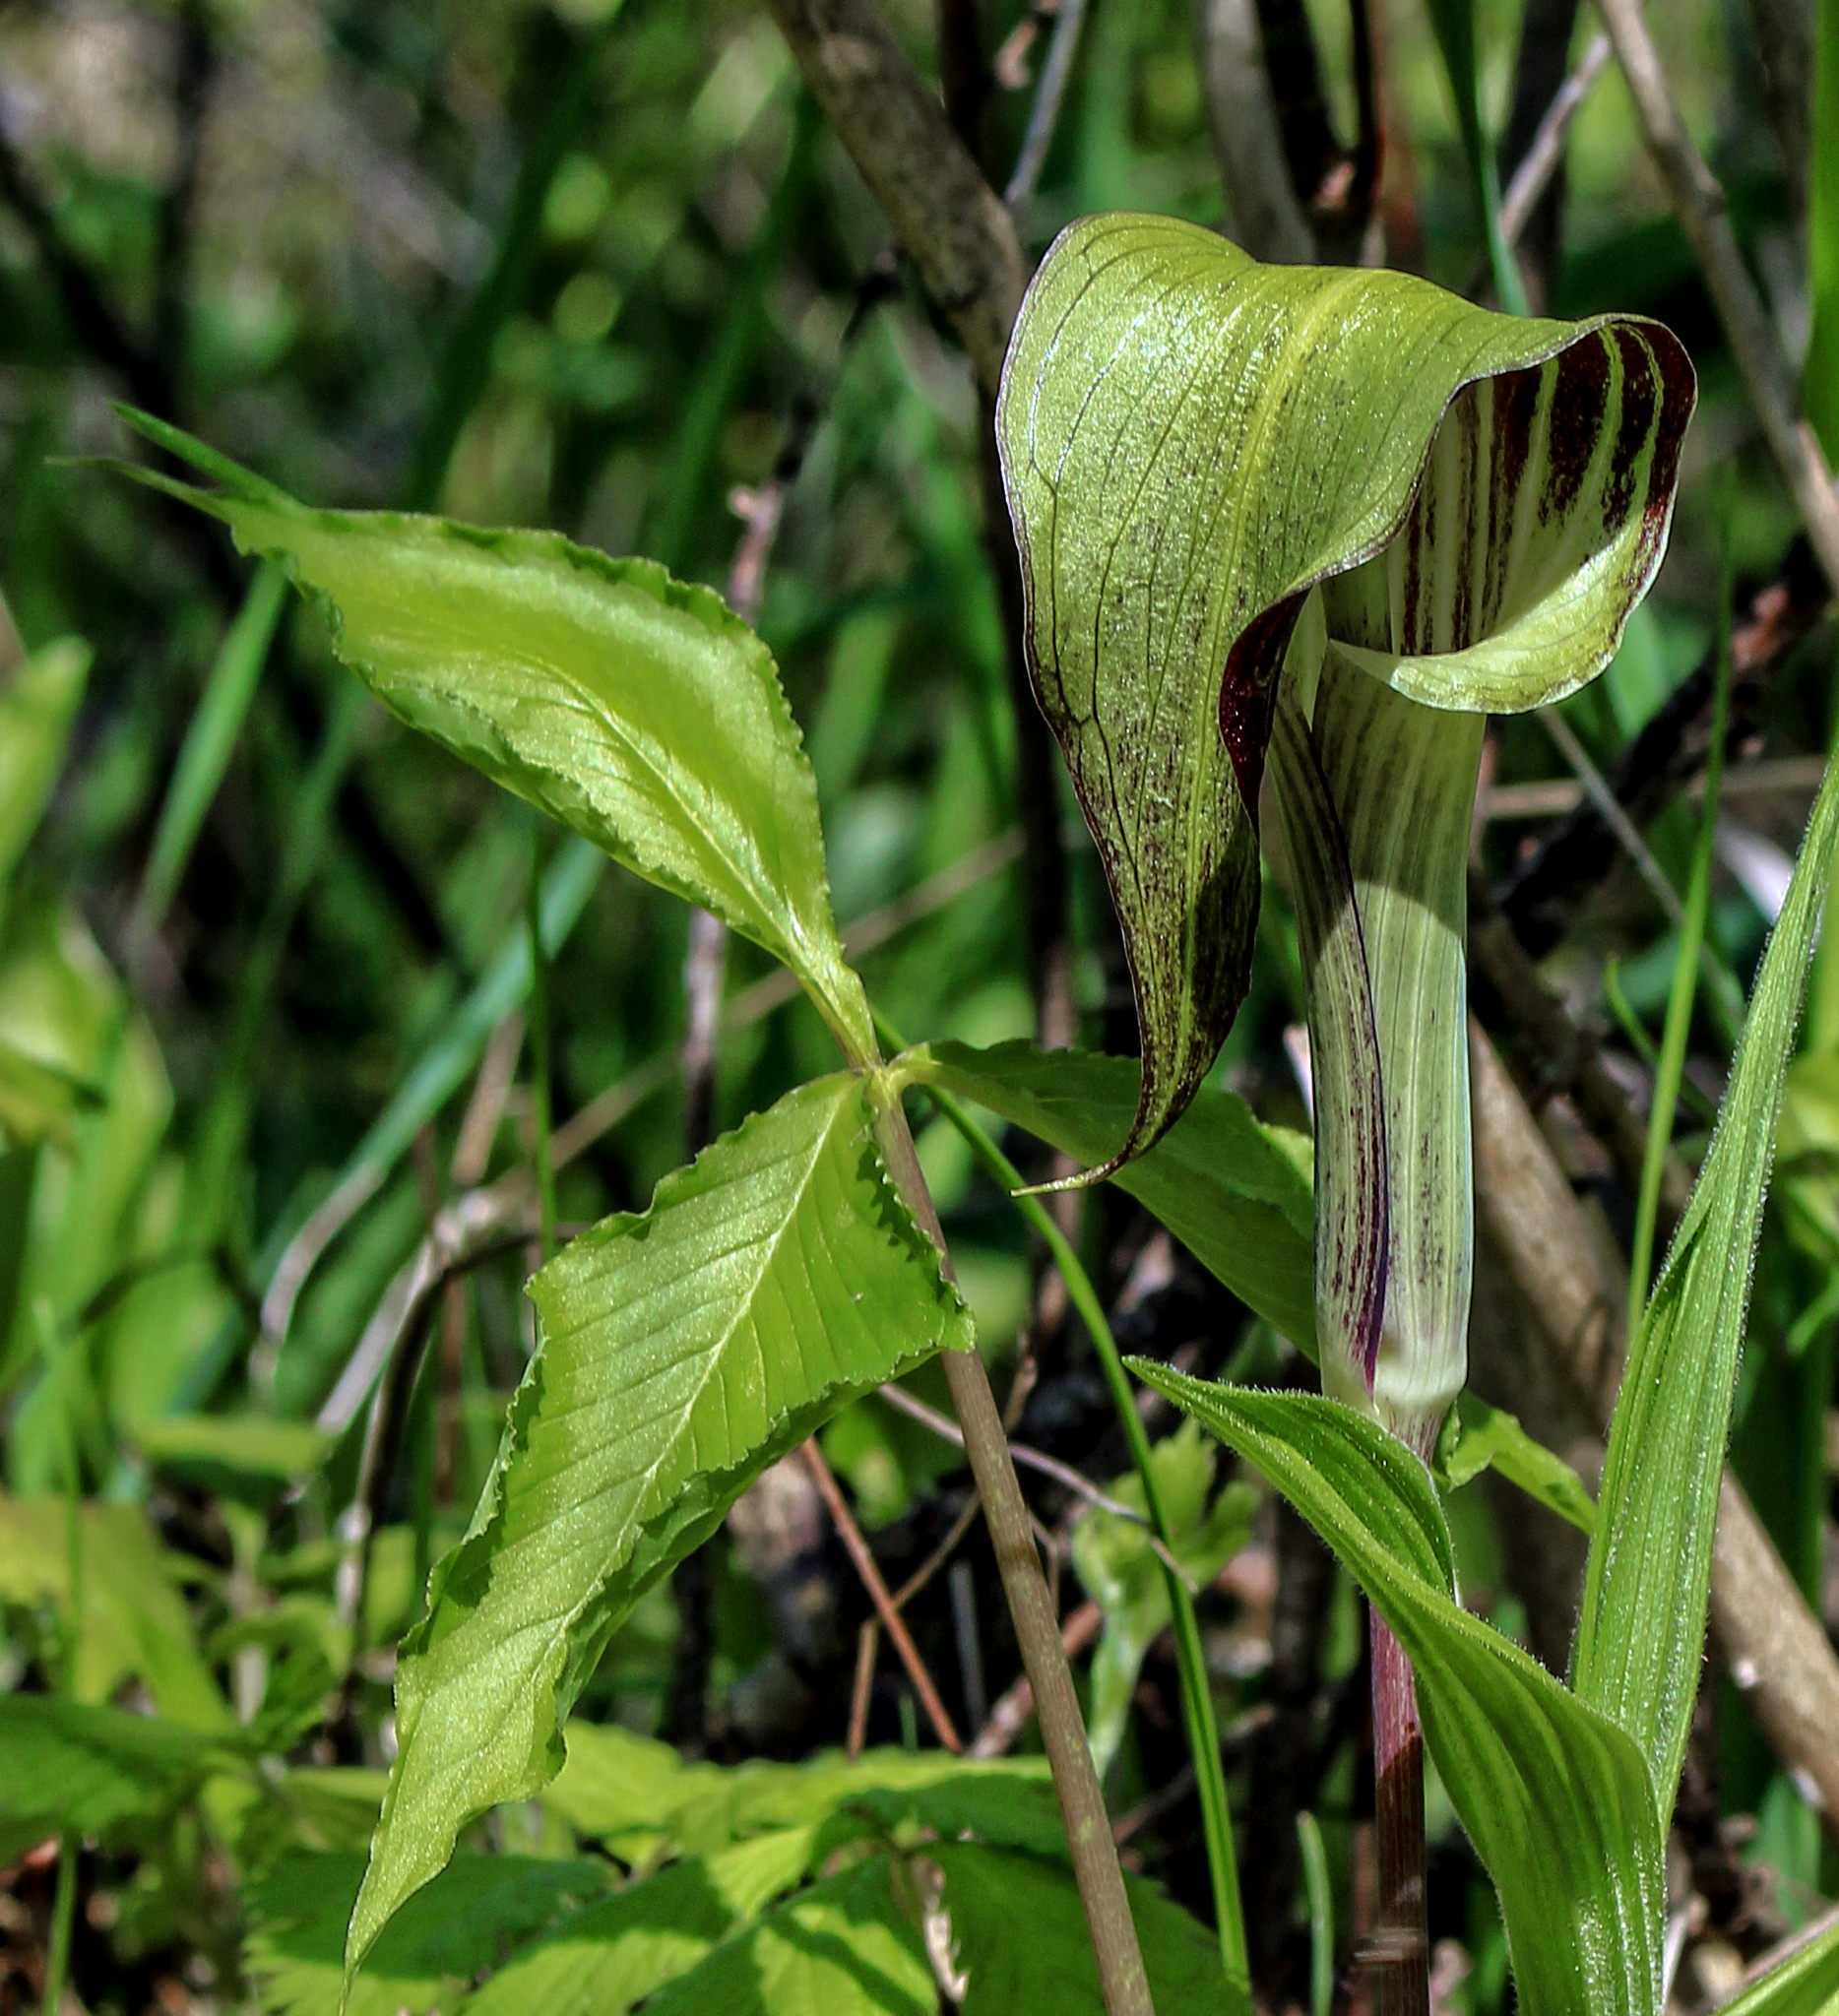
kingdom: Plantae
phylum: Tracheophyta
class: Liliopsida
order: Alismatales
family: Araceae
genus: Arisaema
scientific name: Arisaema triphyllum
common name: Jack-in-the-pulpit
